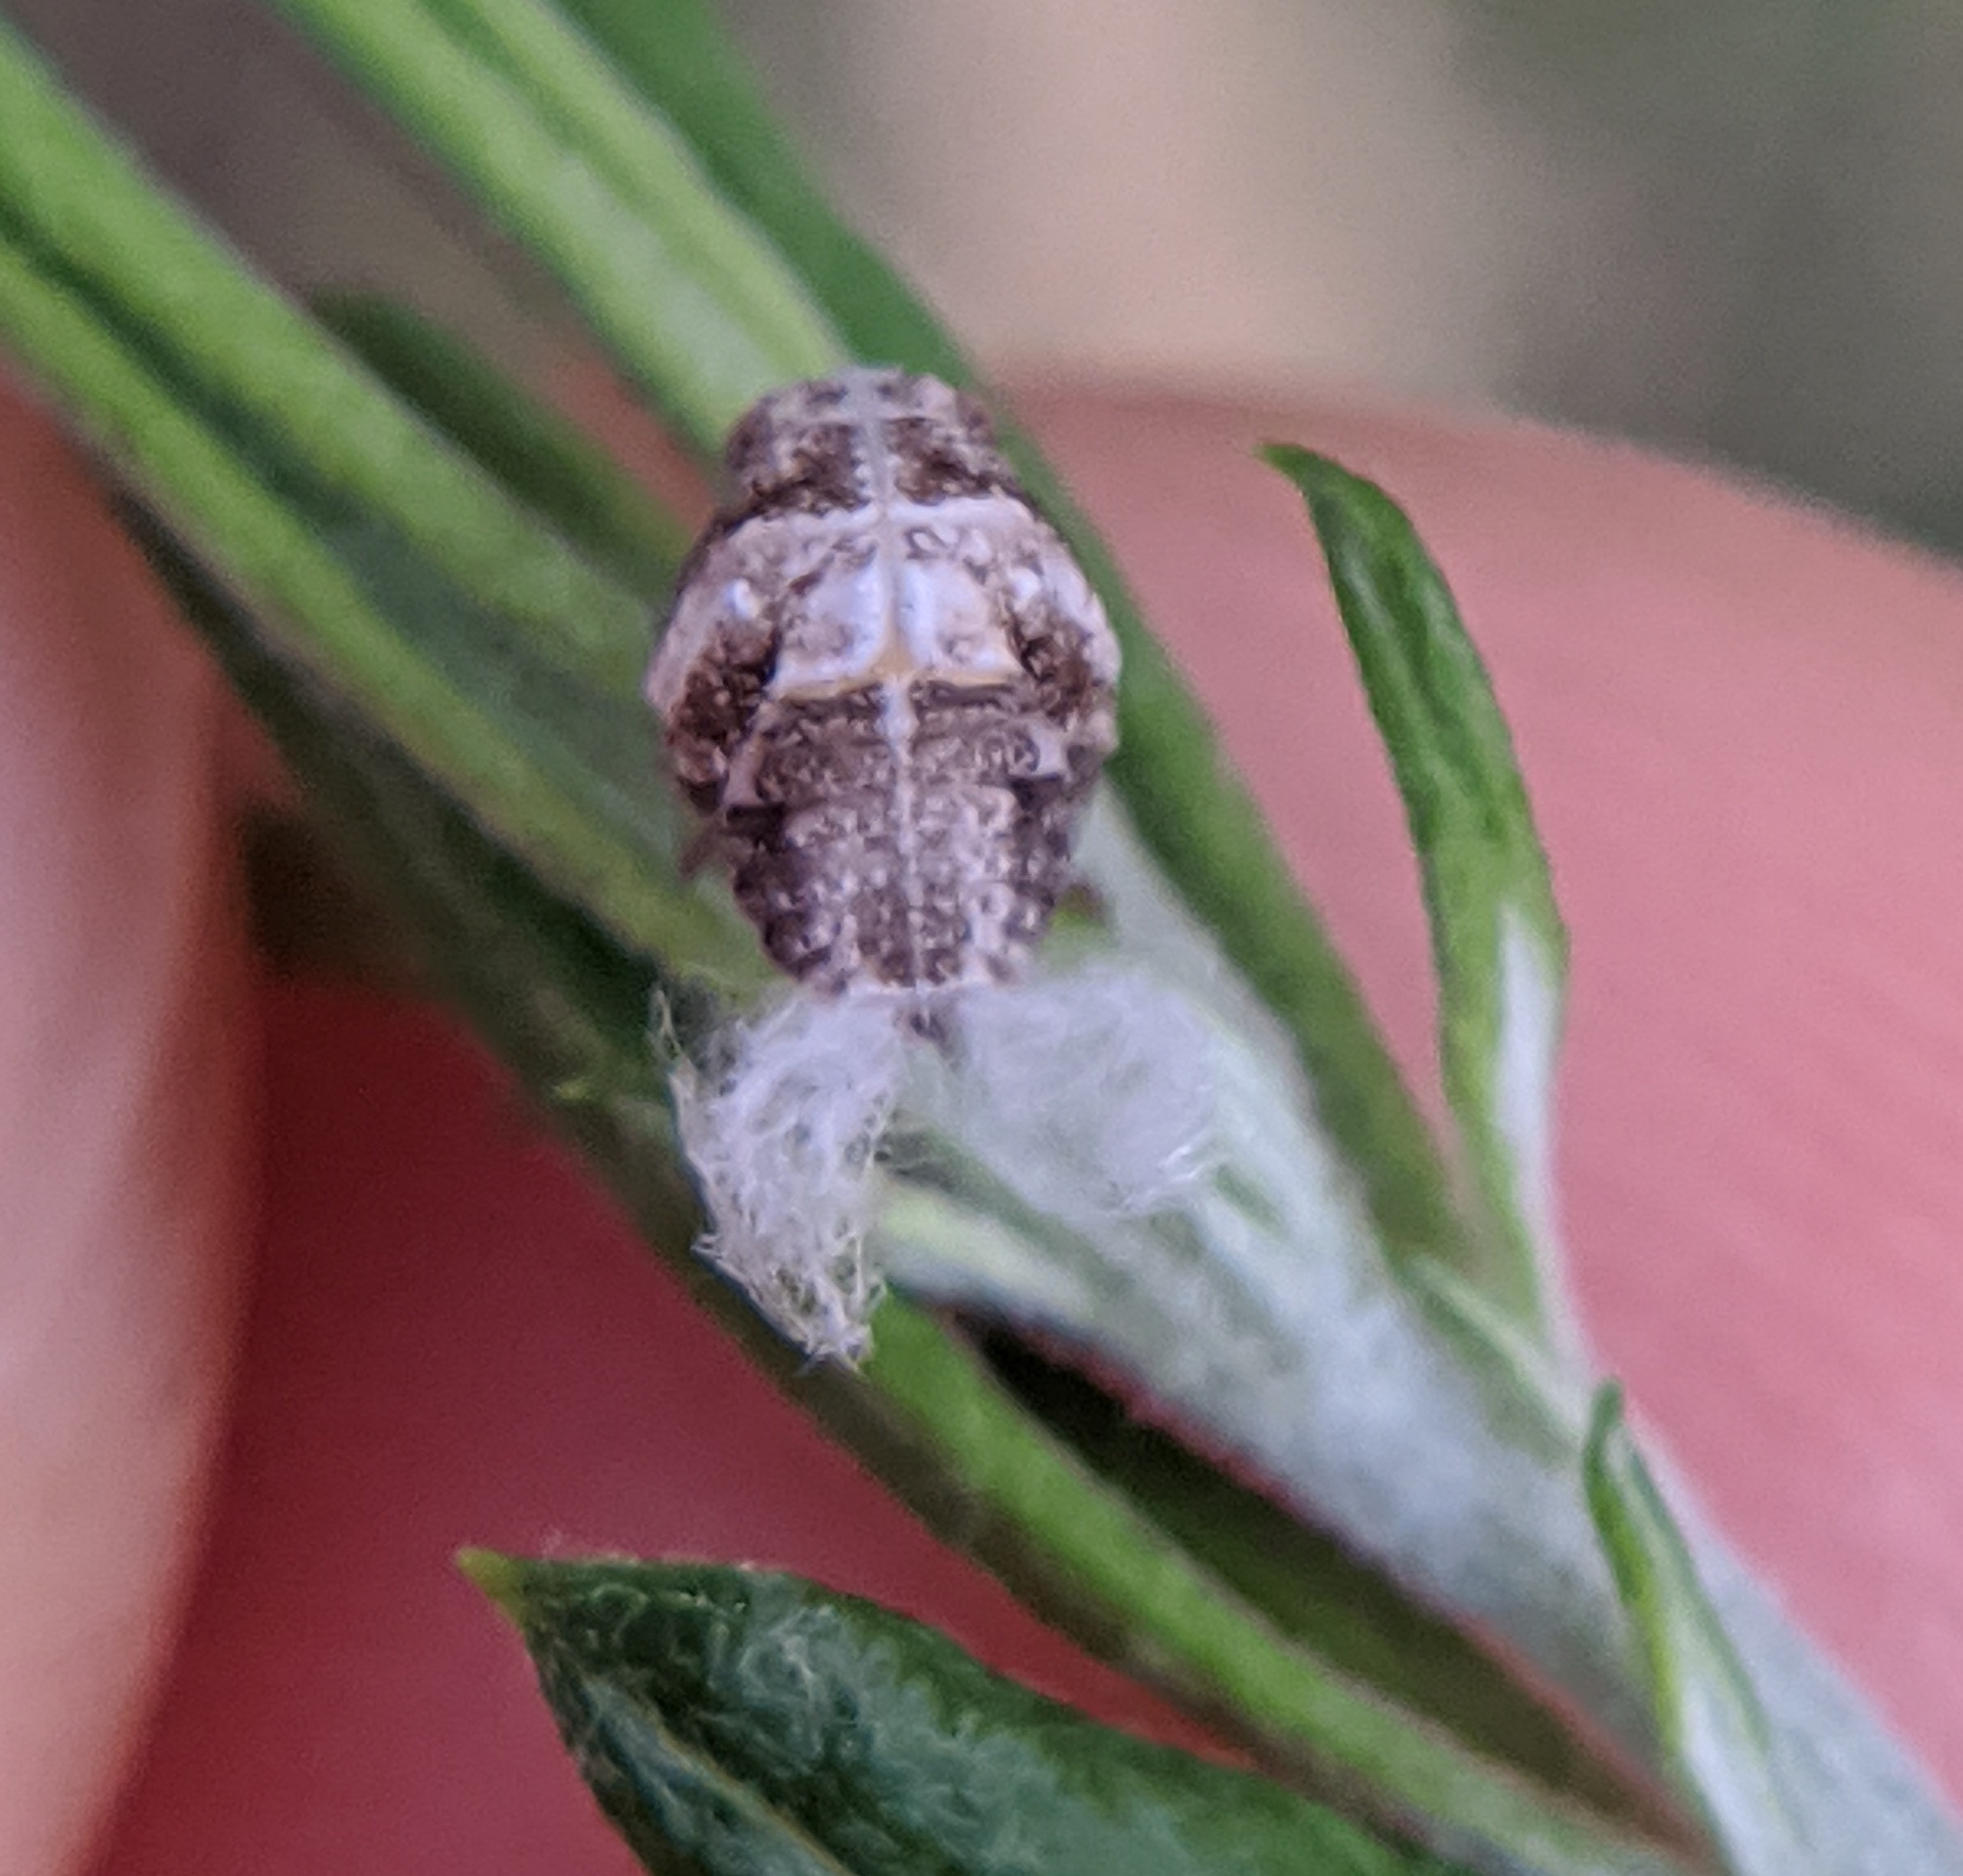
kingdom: Animalia
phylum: Arthropoda
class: Insecta
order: Hemiptera
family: Acanaloniidae
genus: Acanalonia
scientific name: Acanalonia bivittata
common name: Two-striped planthopper
